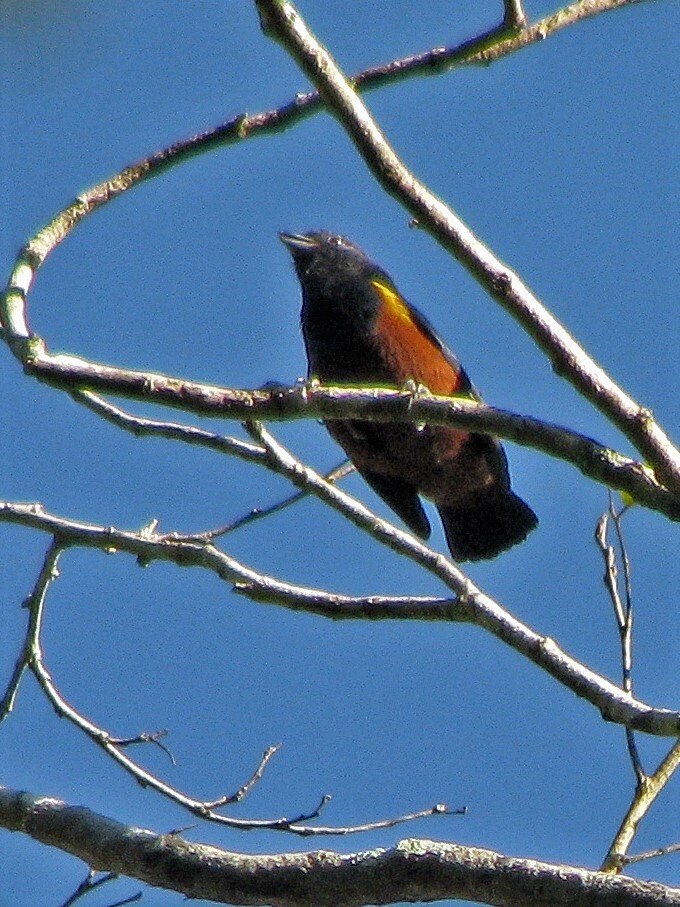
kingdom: Animalia
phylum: Chordata
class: Aves
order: Passeriformes
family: Fringillidae
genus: Euphonia
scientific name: Euphonia pectoralis
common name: Chestnut-bellied euphonia
